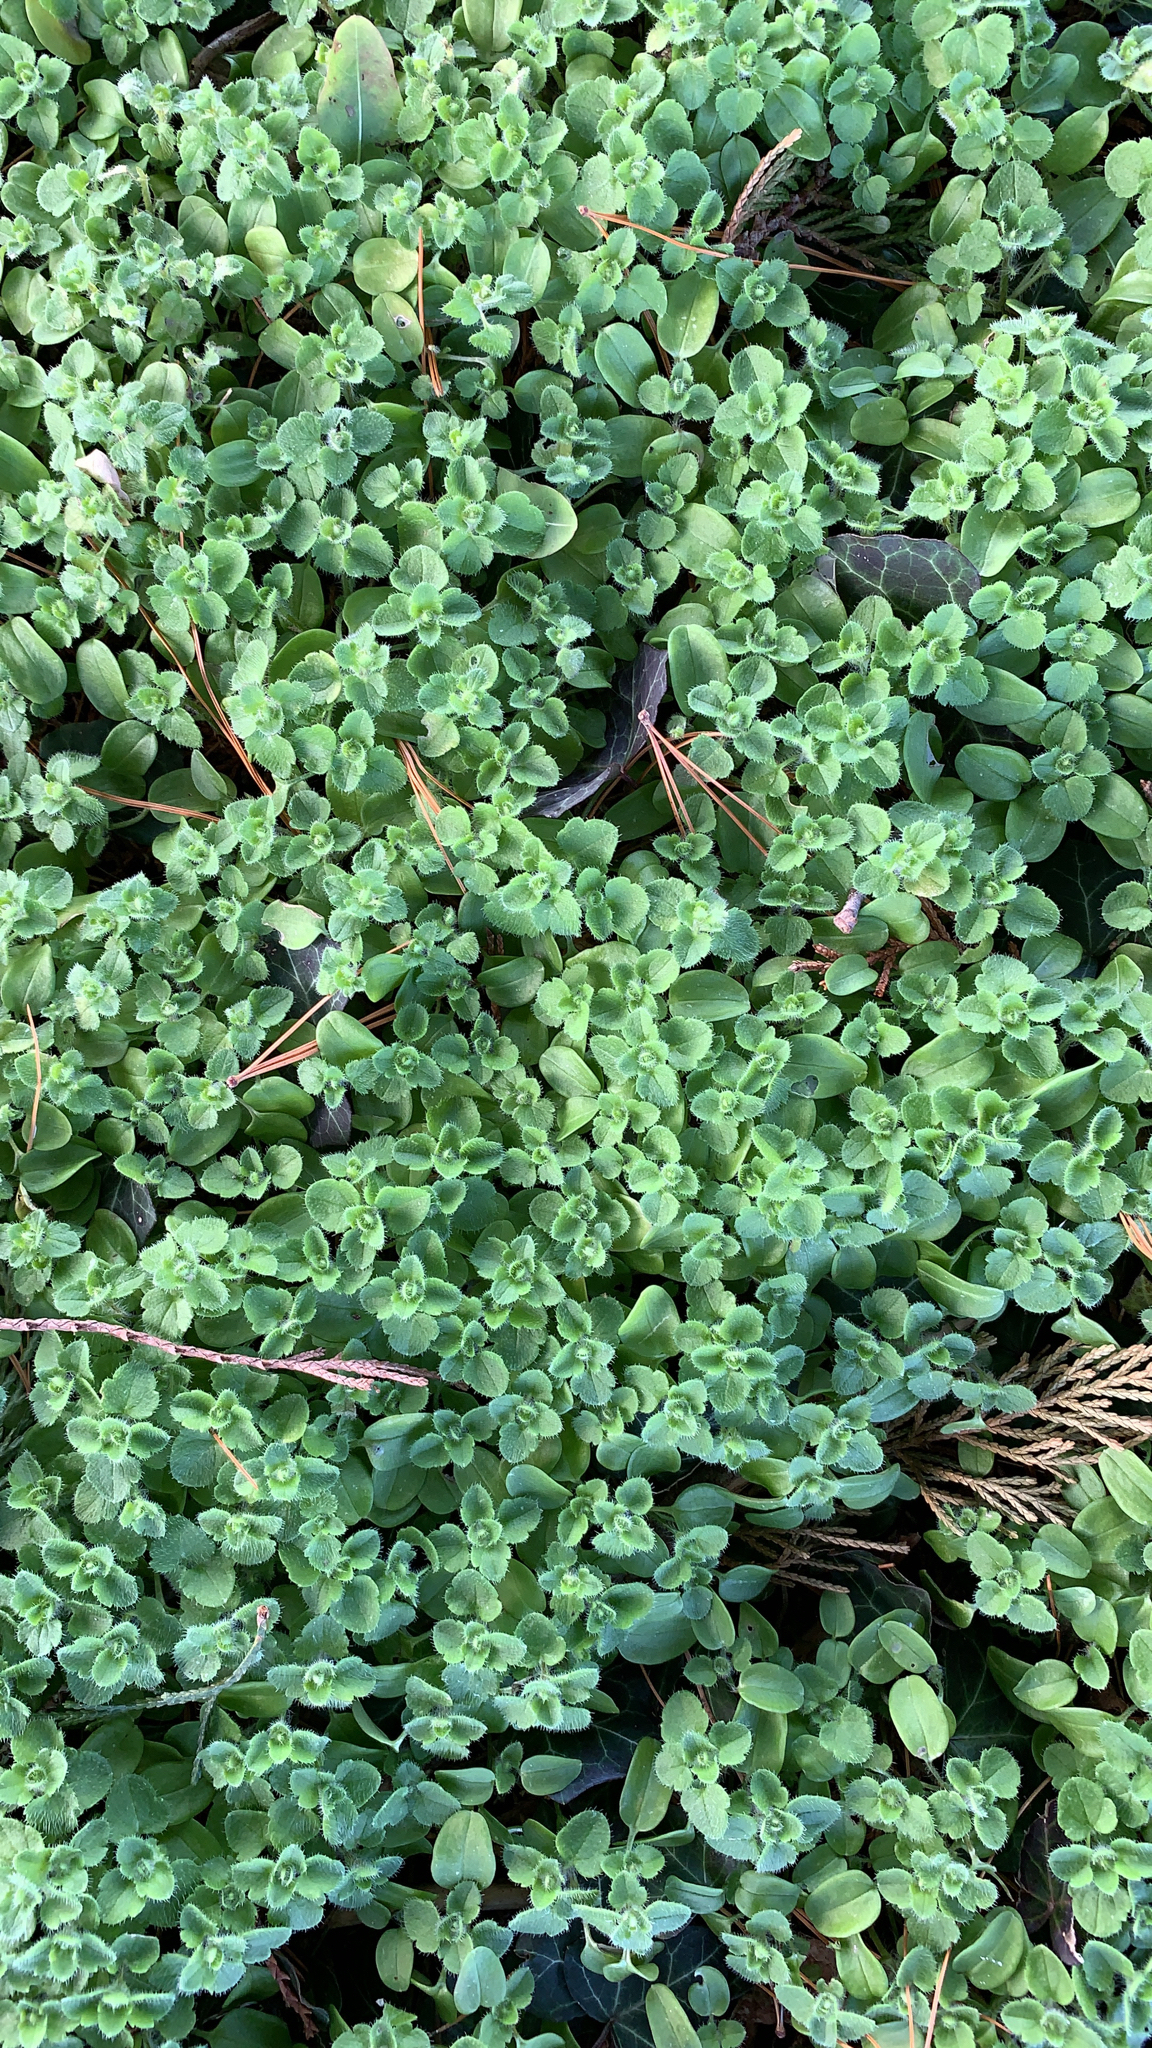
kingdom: Plantae
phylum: Tracheophyta
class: Magnoliopsida
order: Lamiales
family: Plantaginaceae
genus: Veronica
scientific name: Veronica hederifolia
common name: Ivy-leaved speedwell
